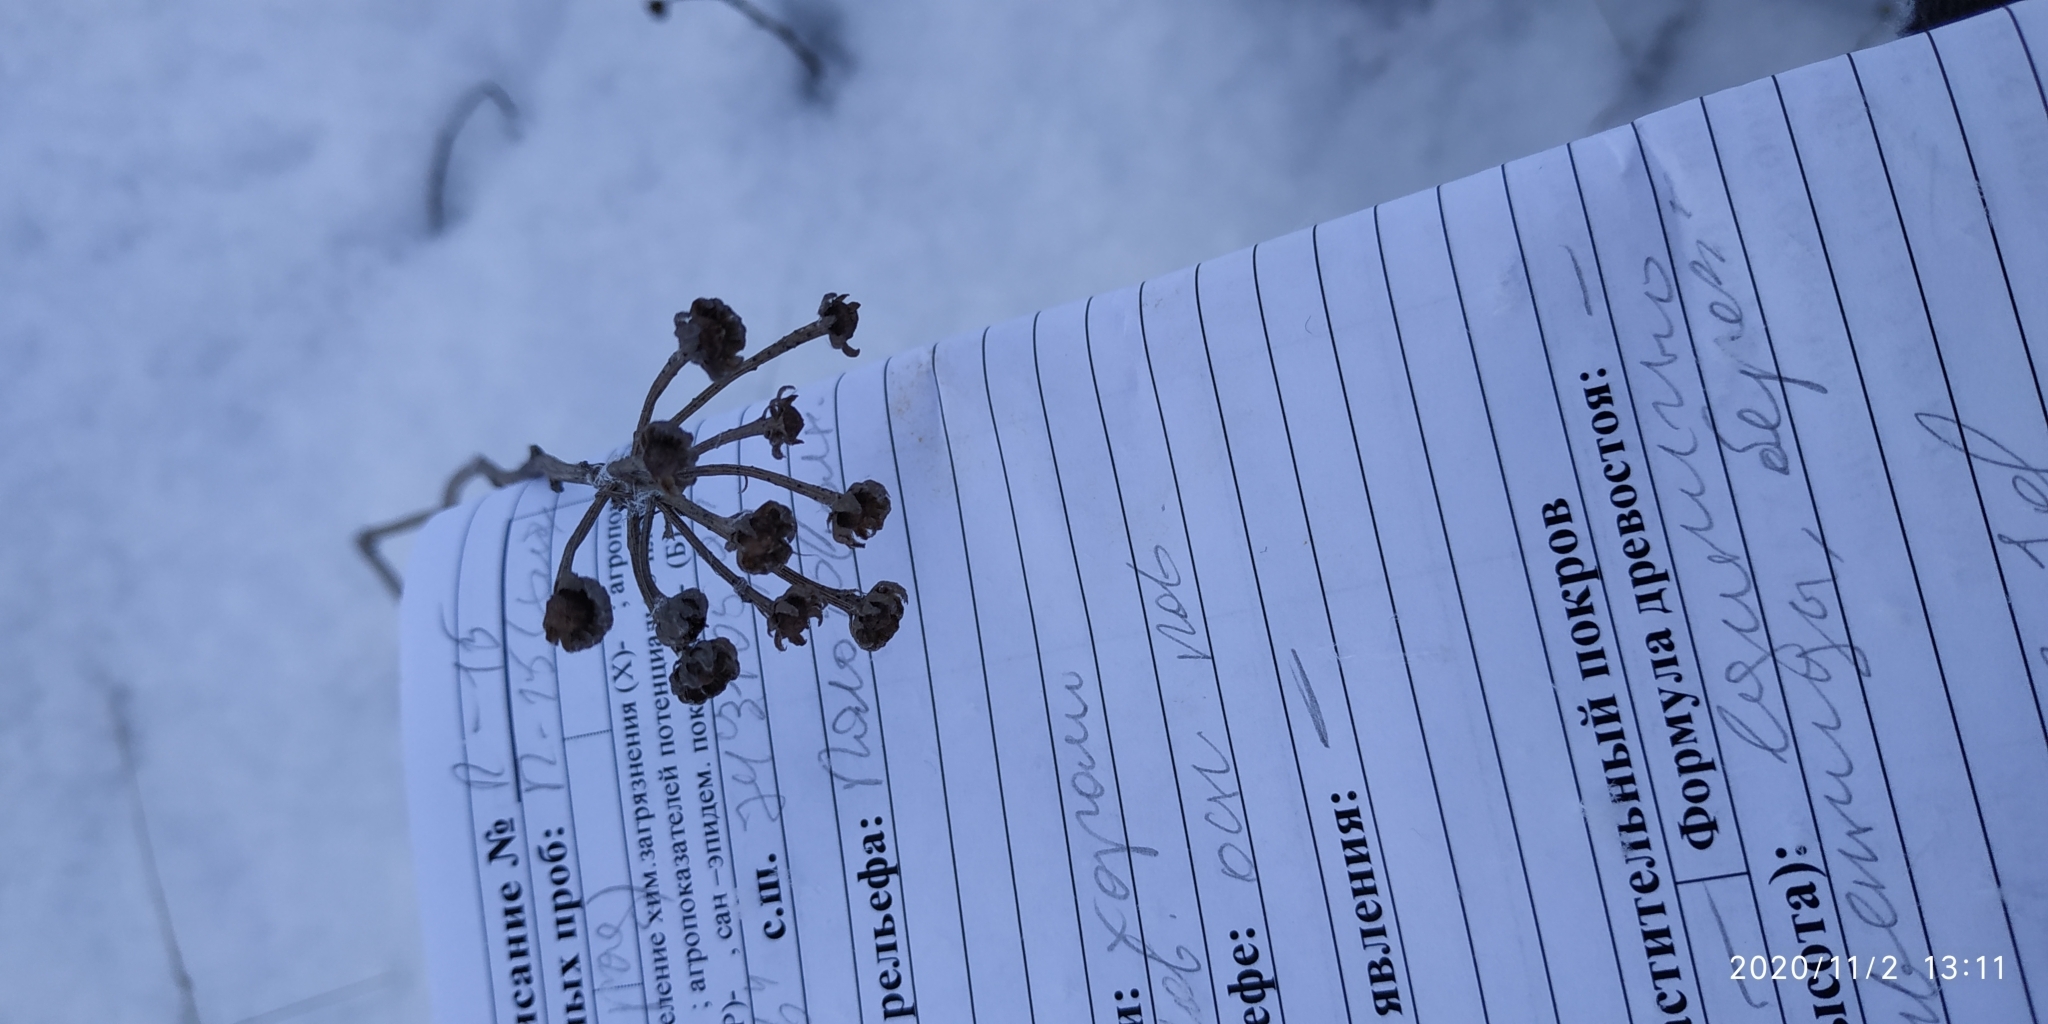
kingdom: Plantae
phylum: Tracheophyta
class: Magnoliopsida
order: Asterales
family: Asteraceae
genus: Tanacetum
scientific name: Tanacetum vulgare
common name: Common tansy
